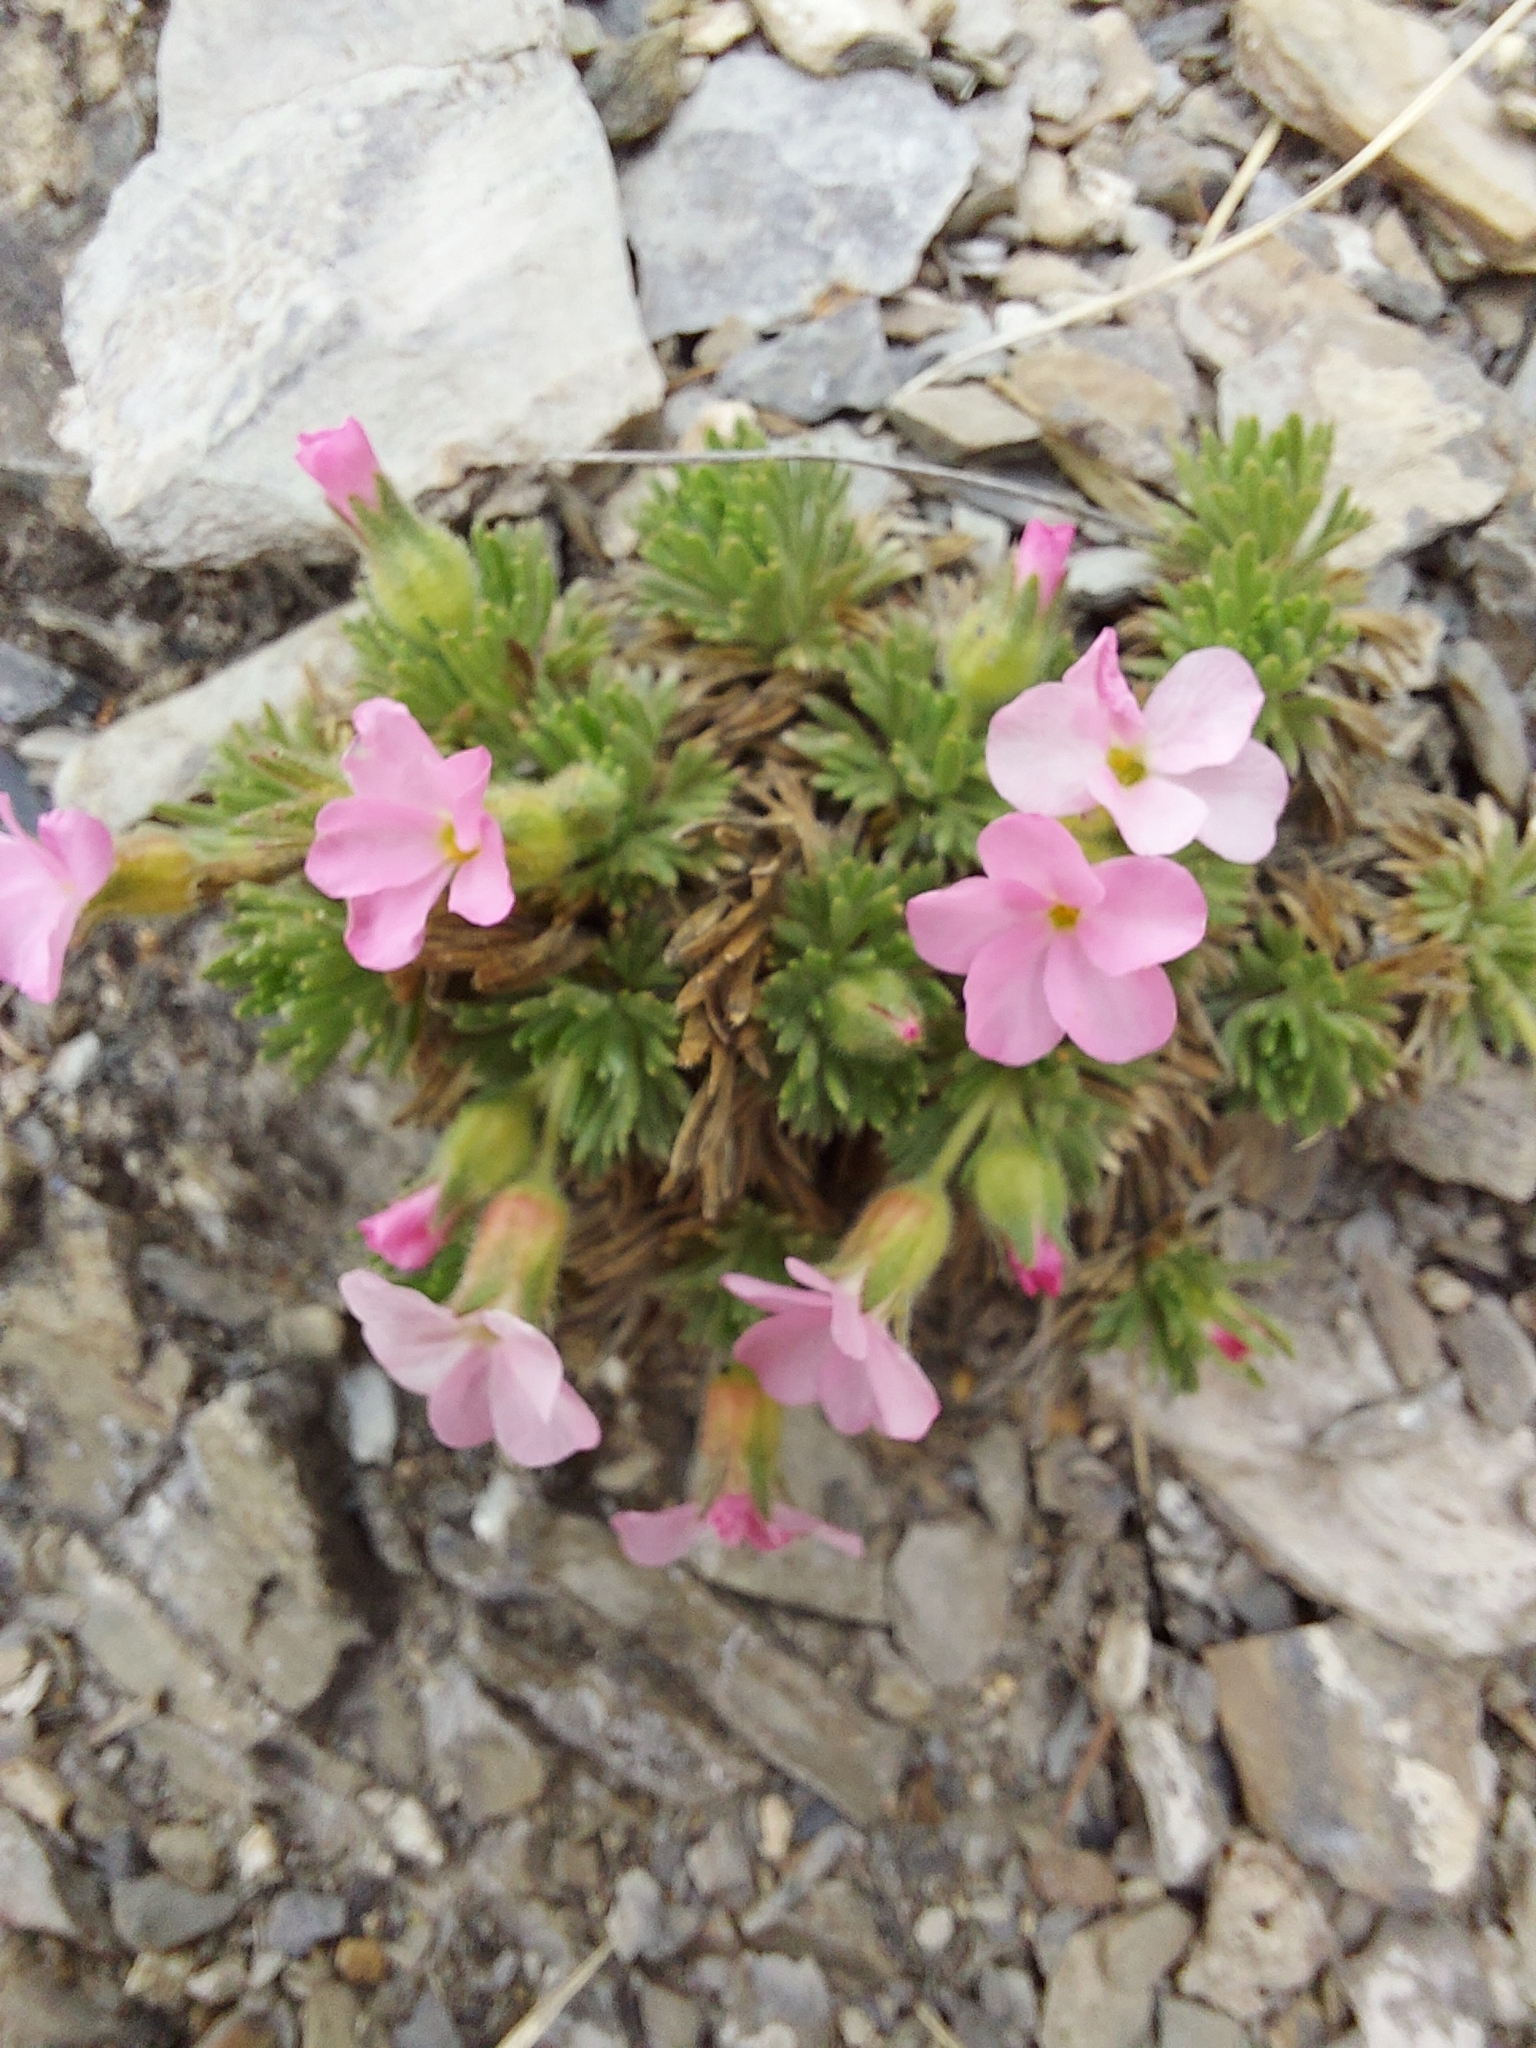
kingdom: Plantae
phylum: Tracheophyta
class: Magnoliopsida
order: Rosales
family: Rosaceae
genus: Chamaerhodos
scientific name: Chamaerhodos altaica
